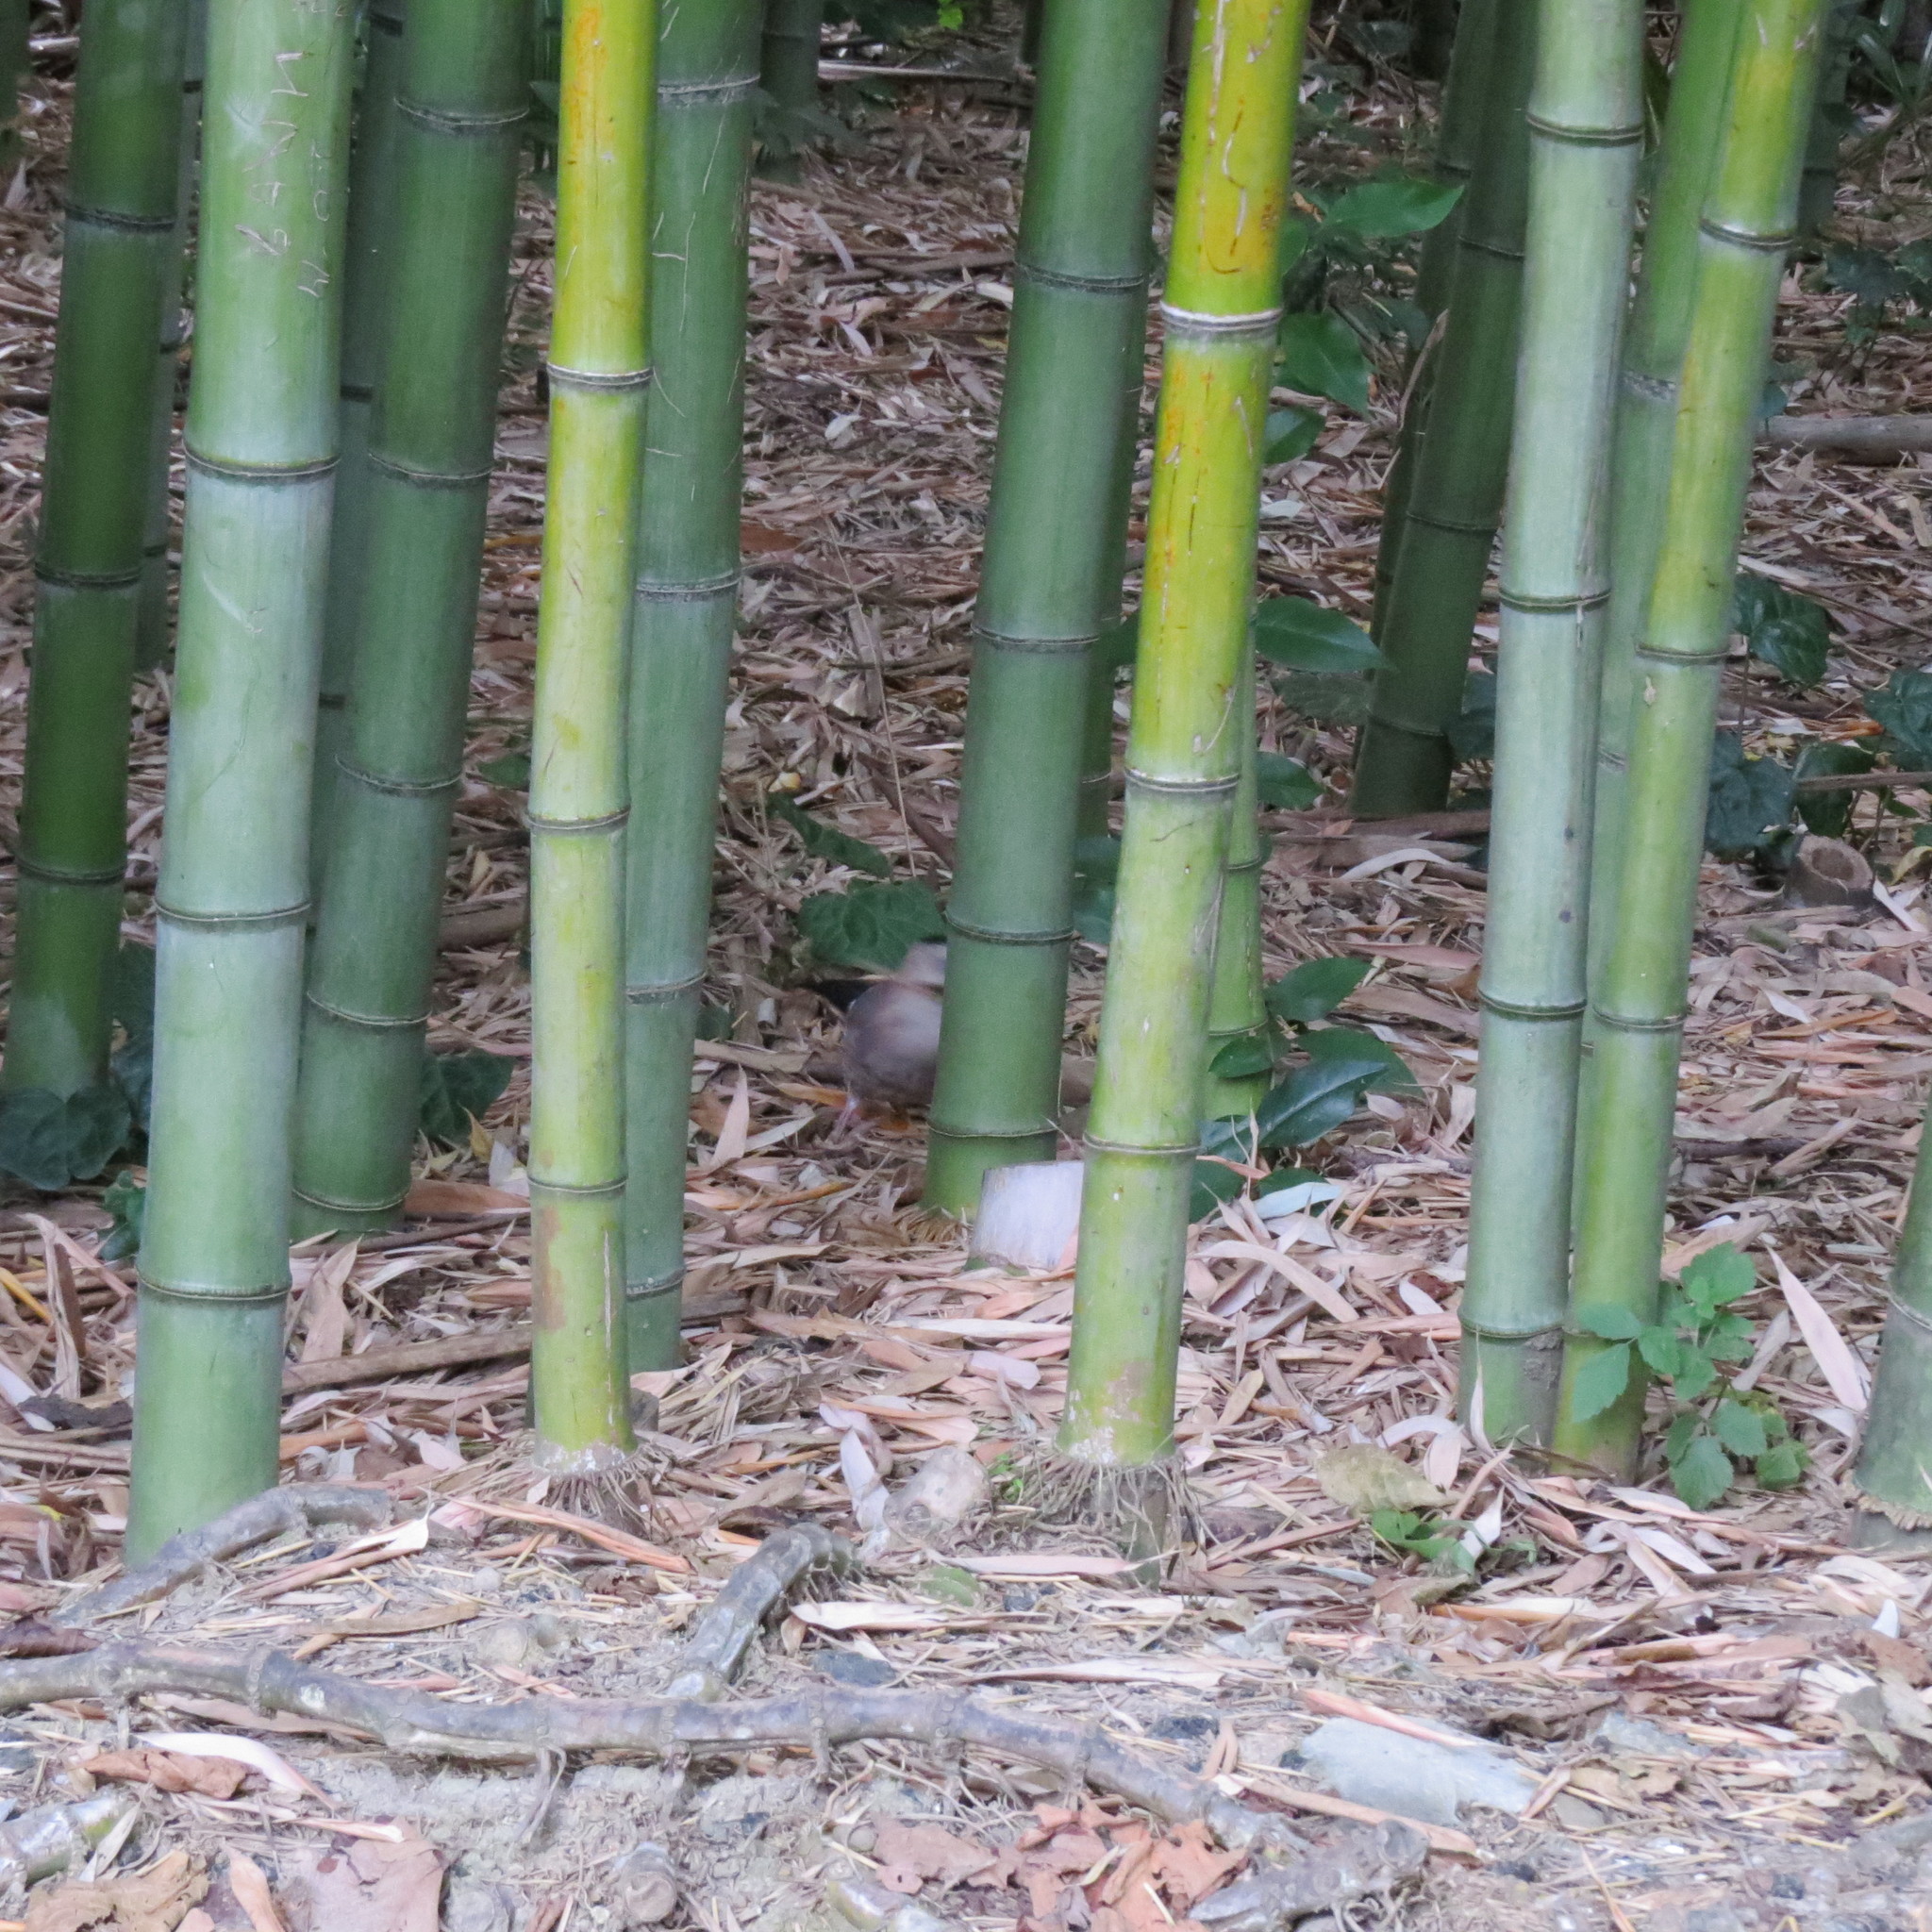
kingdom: Animalia
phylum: Chordata
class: Aves
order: Passeriformes
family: Corvidae
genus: Garrulus
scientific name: Garrulus glandarius
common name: Eurasian jay
